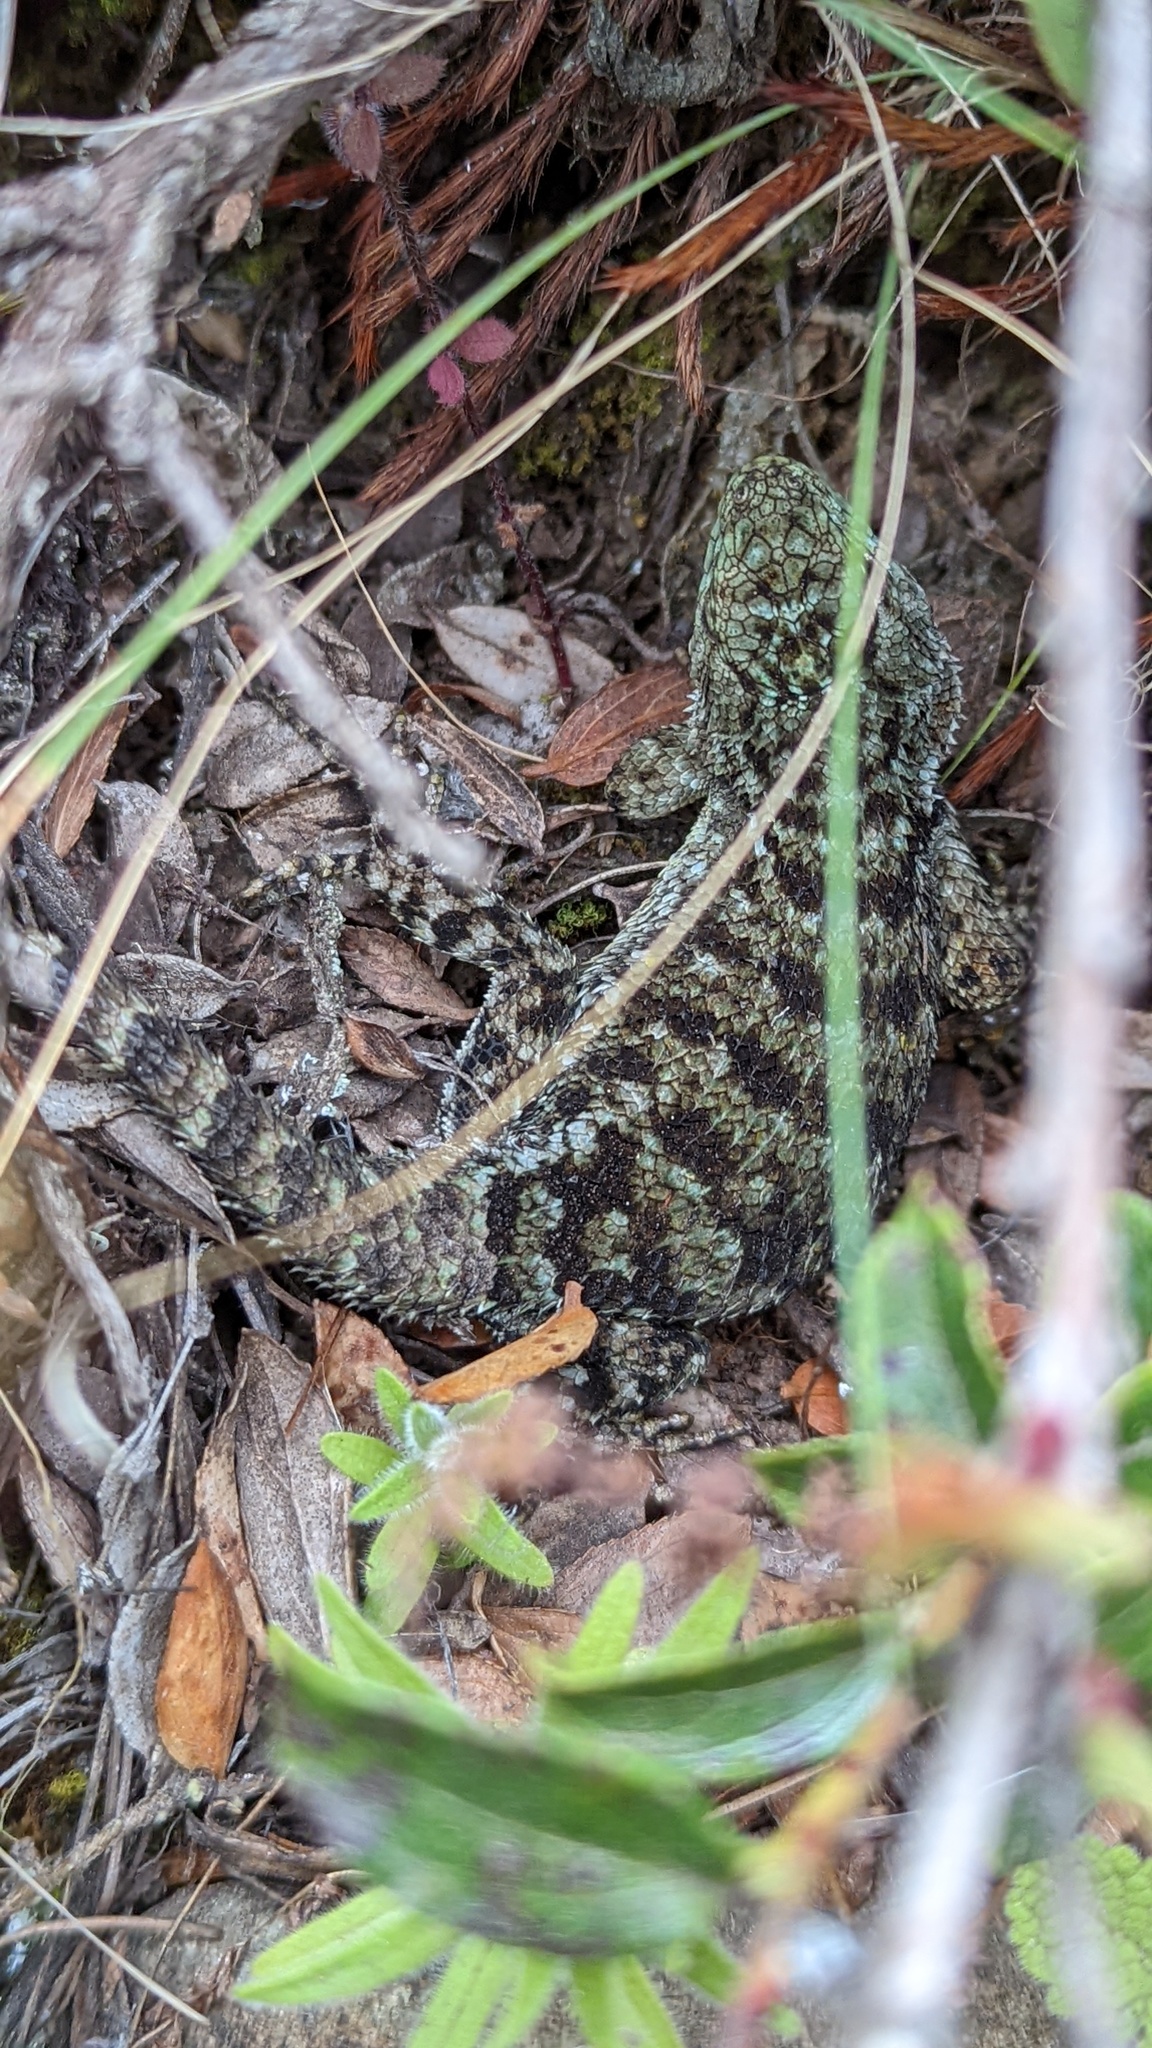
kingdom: Animalia
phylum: Chordata
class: Squamata
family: Phrynosomatidae
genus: Sceloporus
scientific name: Sceloporus malachiticus
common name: Green spiny lizard
